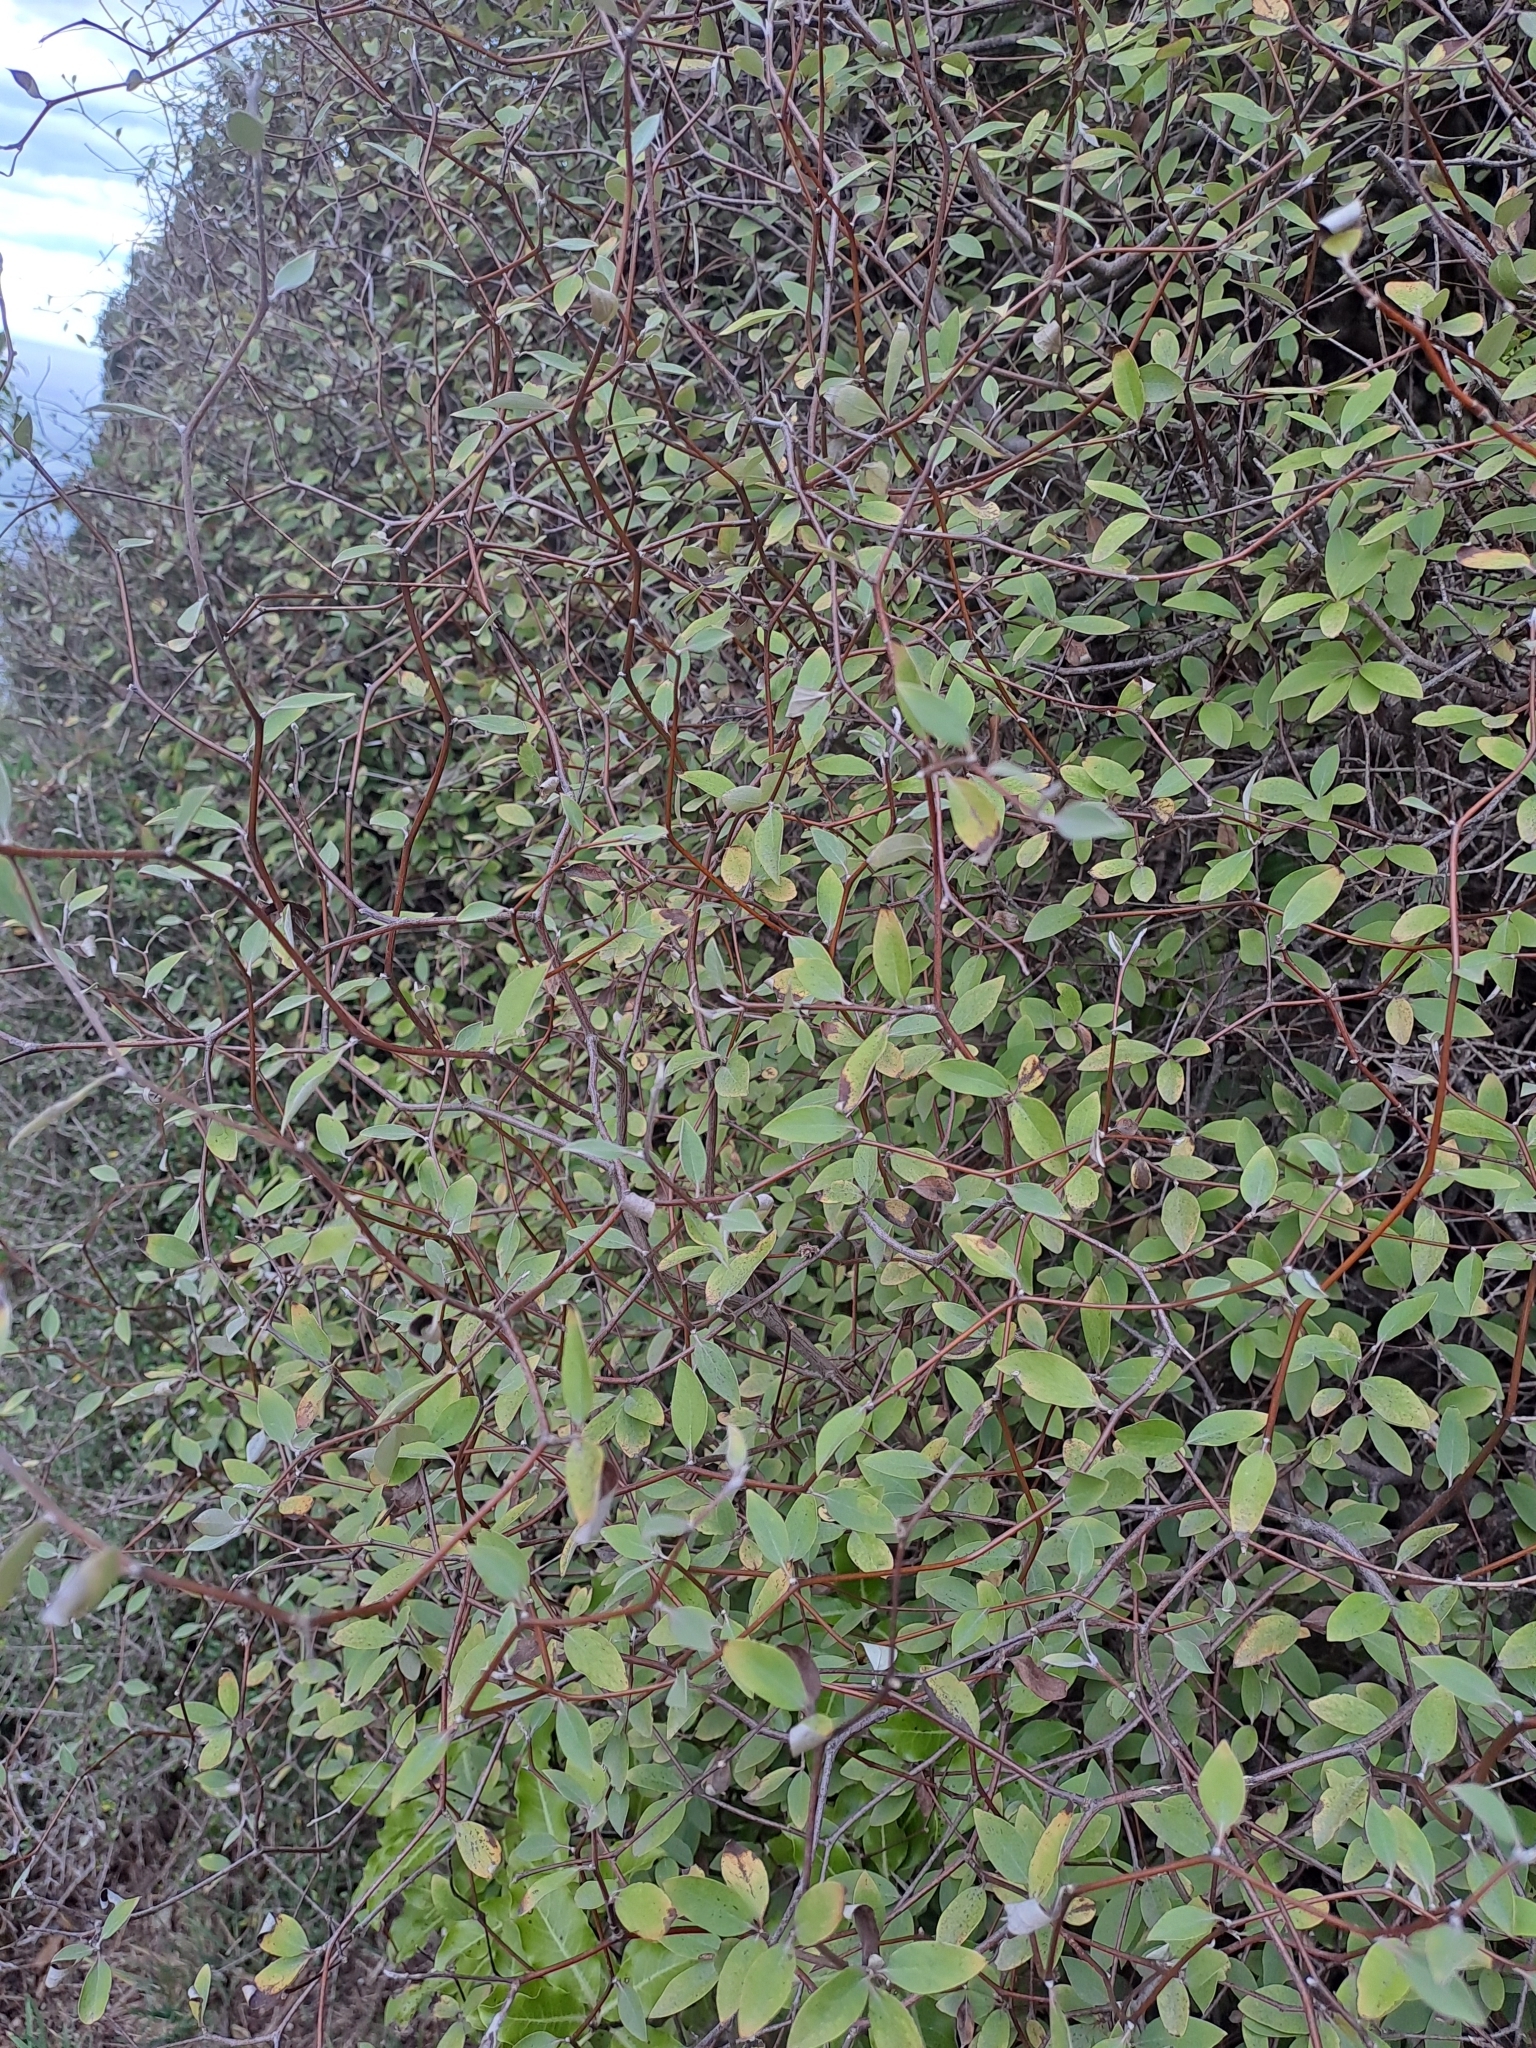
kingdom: Plantae
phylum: Tracheophyta
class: Magnoliopsida
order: Asterales
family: Asteraceae
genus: Olearia
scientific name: Olearia fragrantissima
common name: Fragrant tree daisy
